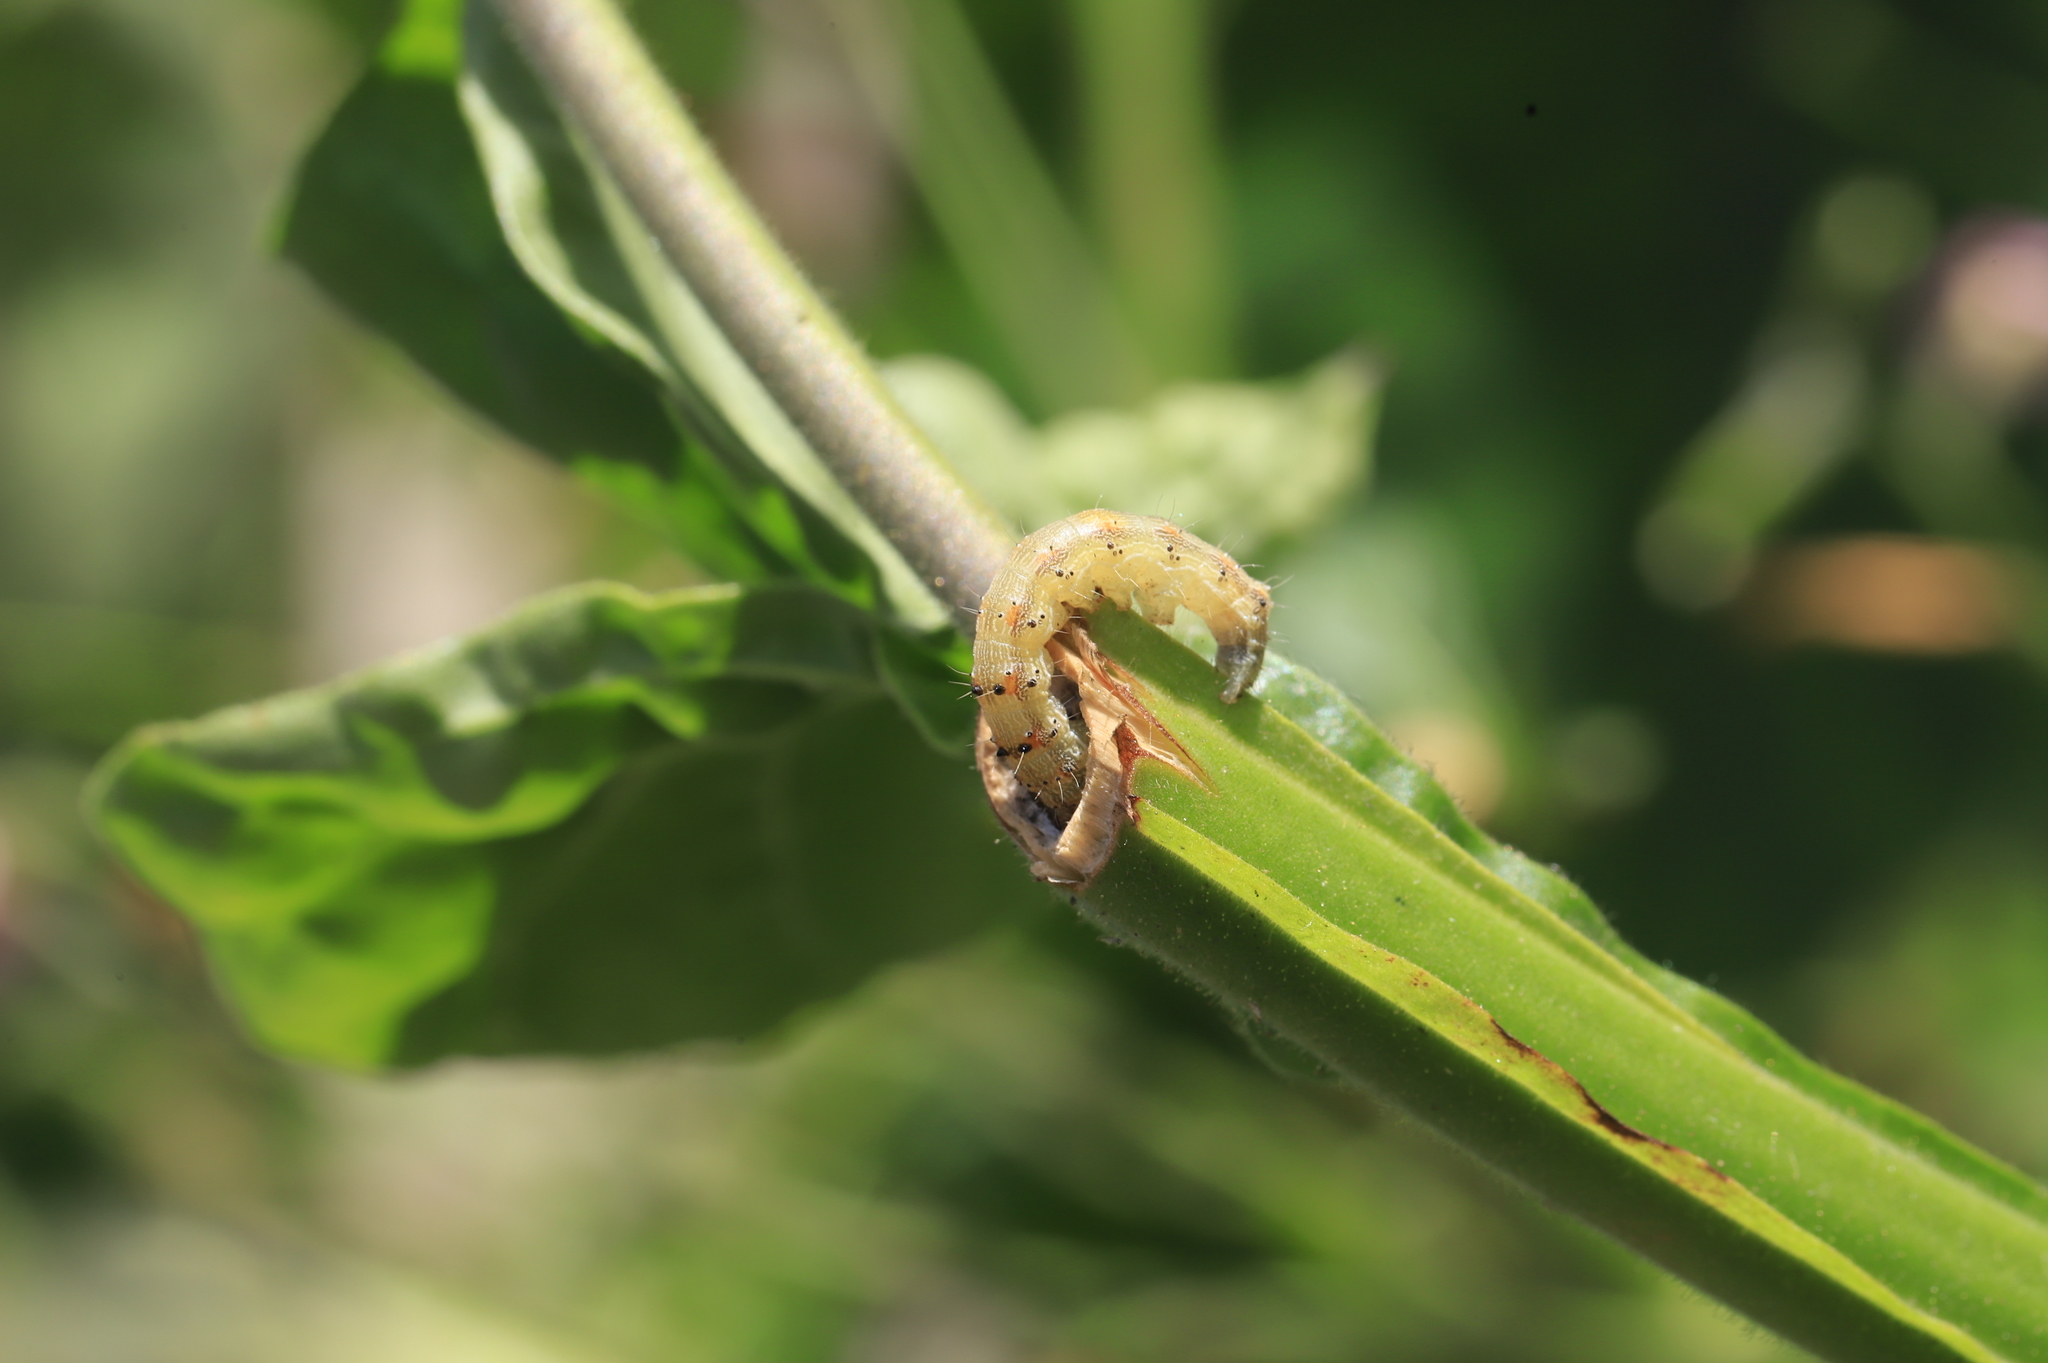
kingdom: Animalia
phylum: Arthropoda
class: Insecta
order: Lepidoptera
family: Noctuidae
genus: Chloridea
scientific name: Chloridea virescens
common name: Tobacco budworm
